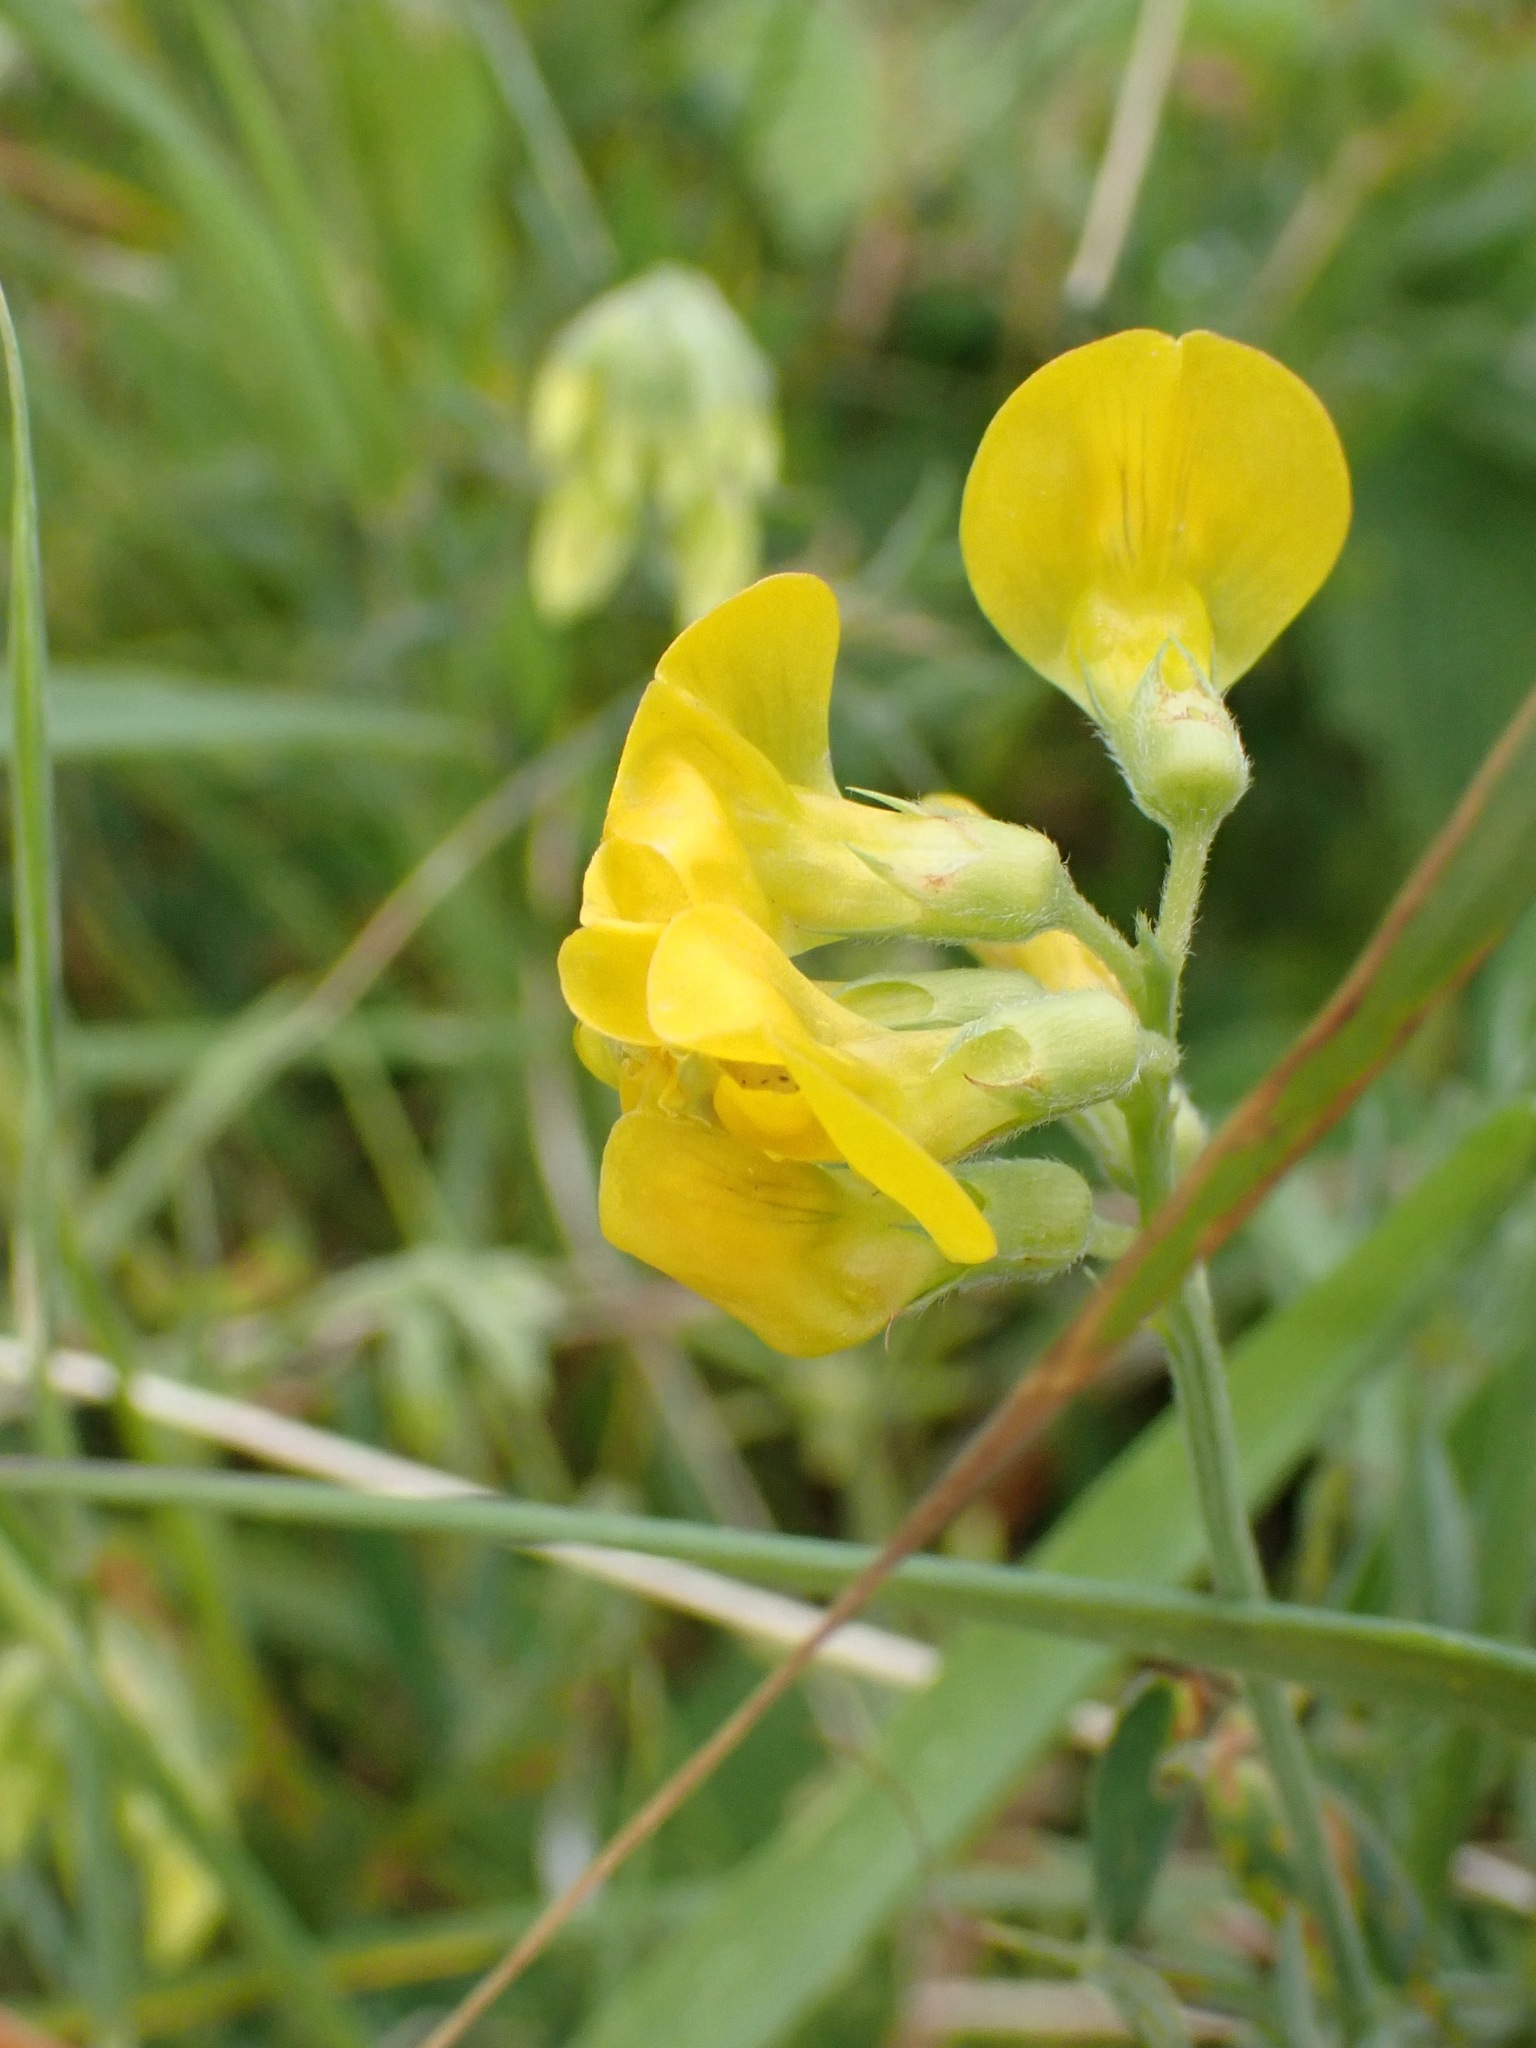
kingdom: Plantae
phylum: Tracheophyta
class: Magnoliopsida
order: Fabales
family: Fabaceae
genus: Lathyrus
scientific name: Lathyrus pratensis
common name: Meadow vetchling
